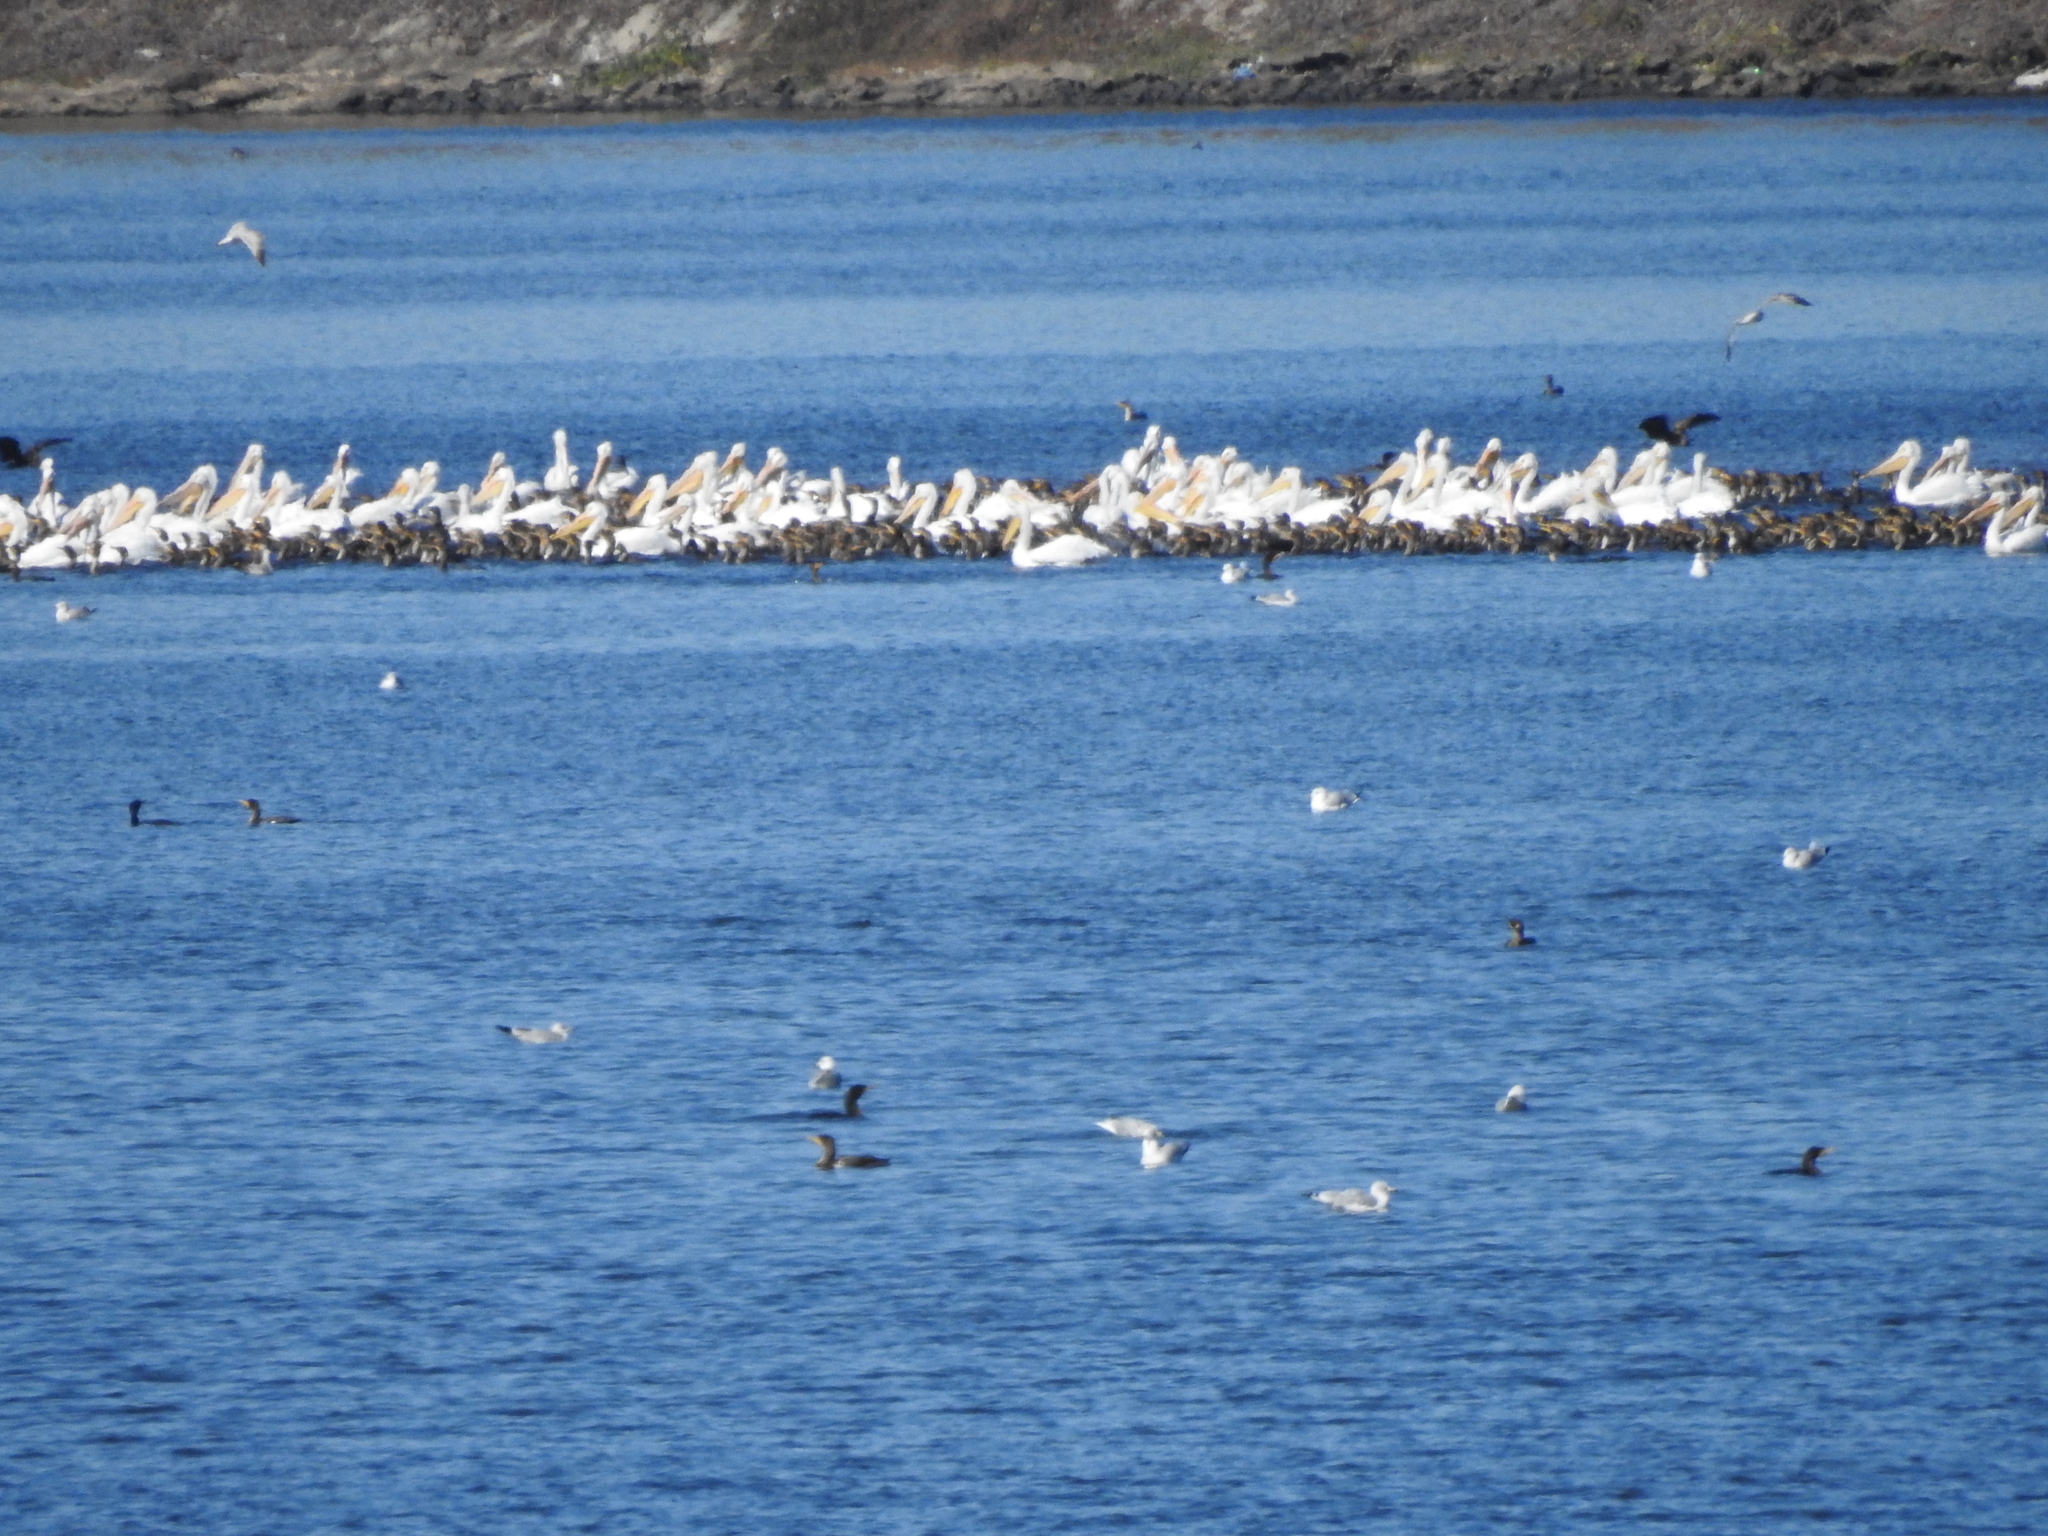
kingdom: Animalia
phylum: Chordata
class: Aves
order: Suliformes
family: Phalacrocoracidae
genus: Phalacrocorax
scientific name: Phalacrocorax auritus
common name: Double-crested cormorant
